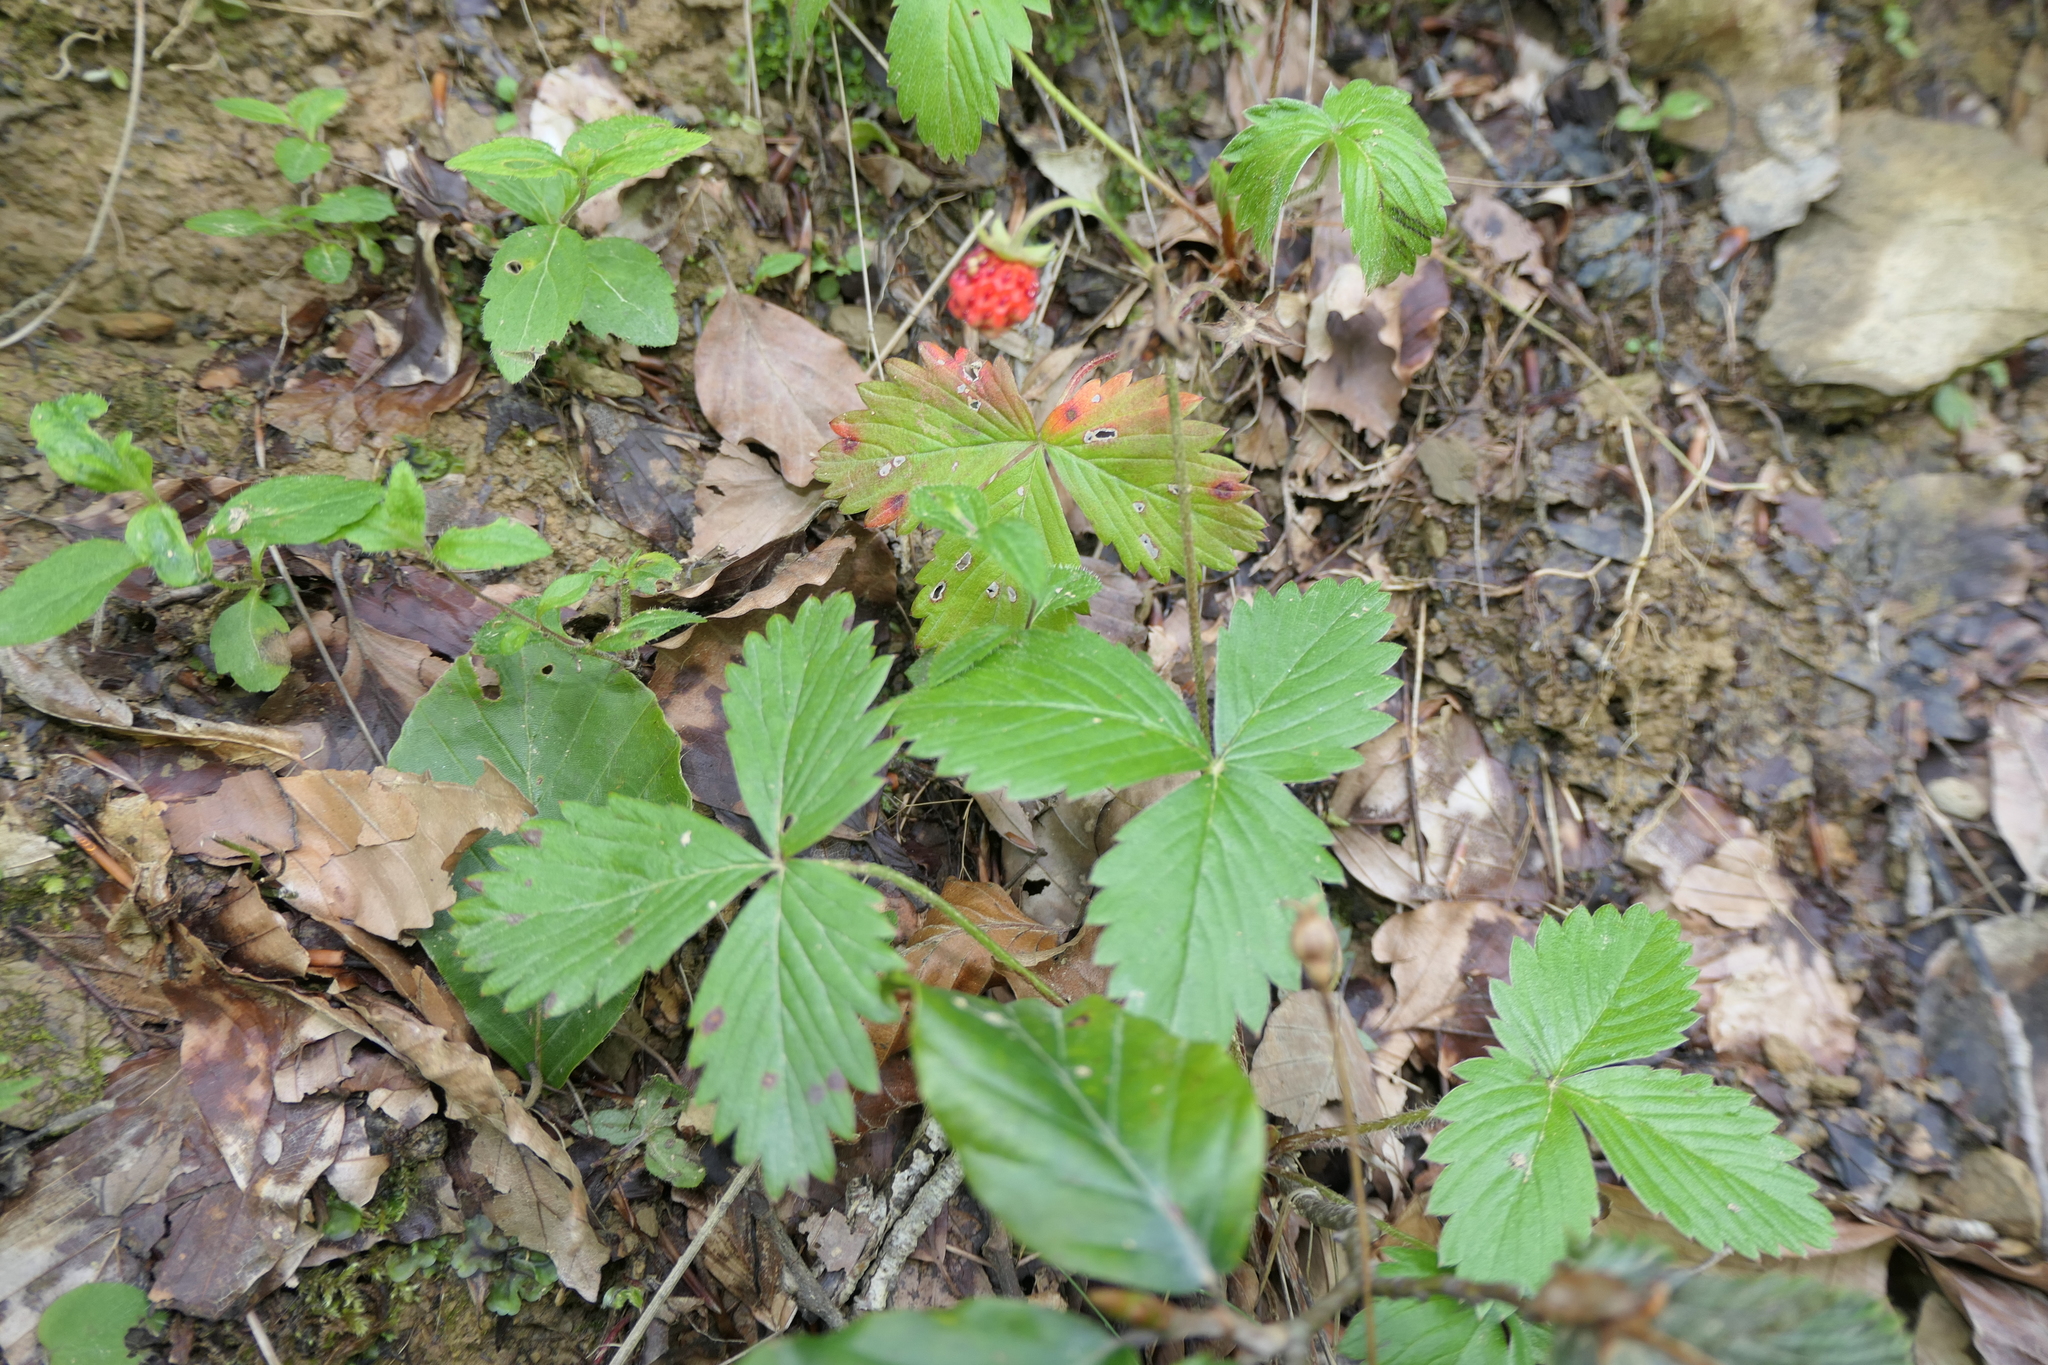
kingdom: Plantae
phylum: Tracheophyta
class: Magnoliopsida
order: Rosales
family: Rosaceae
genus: Fragaria
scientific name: Fragaria vesca
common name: Wild strawberry
